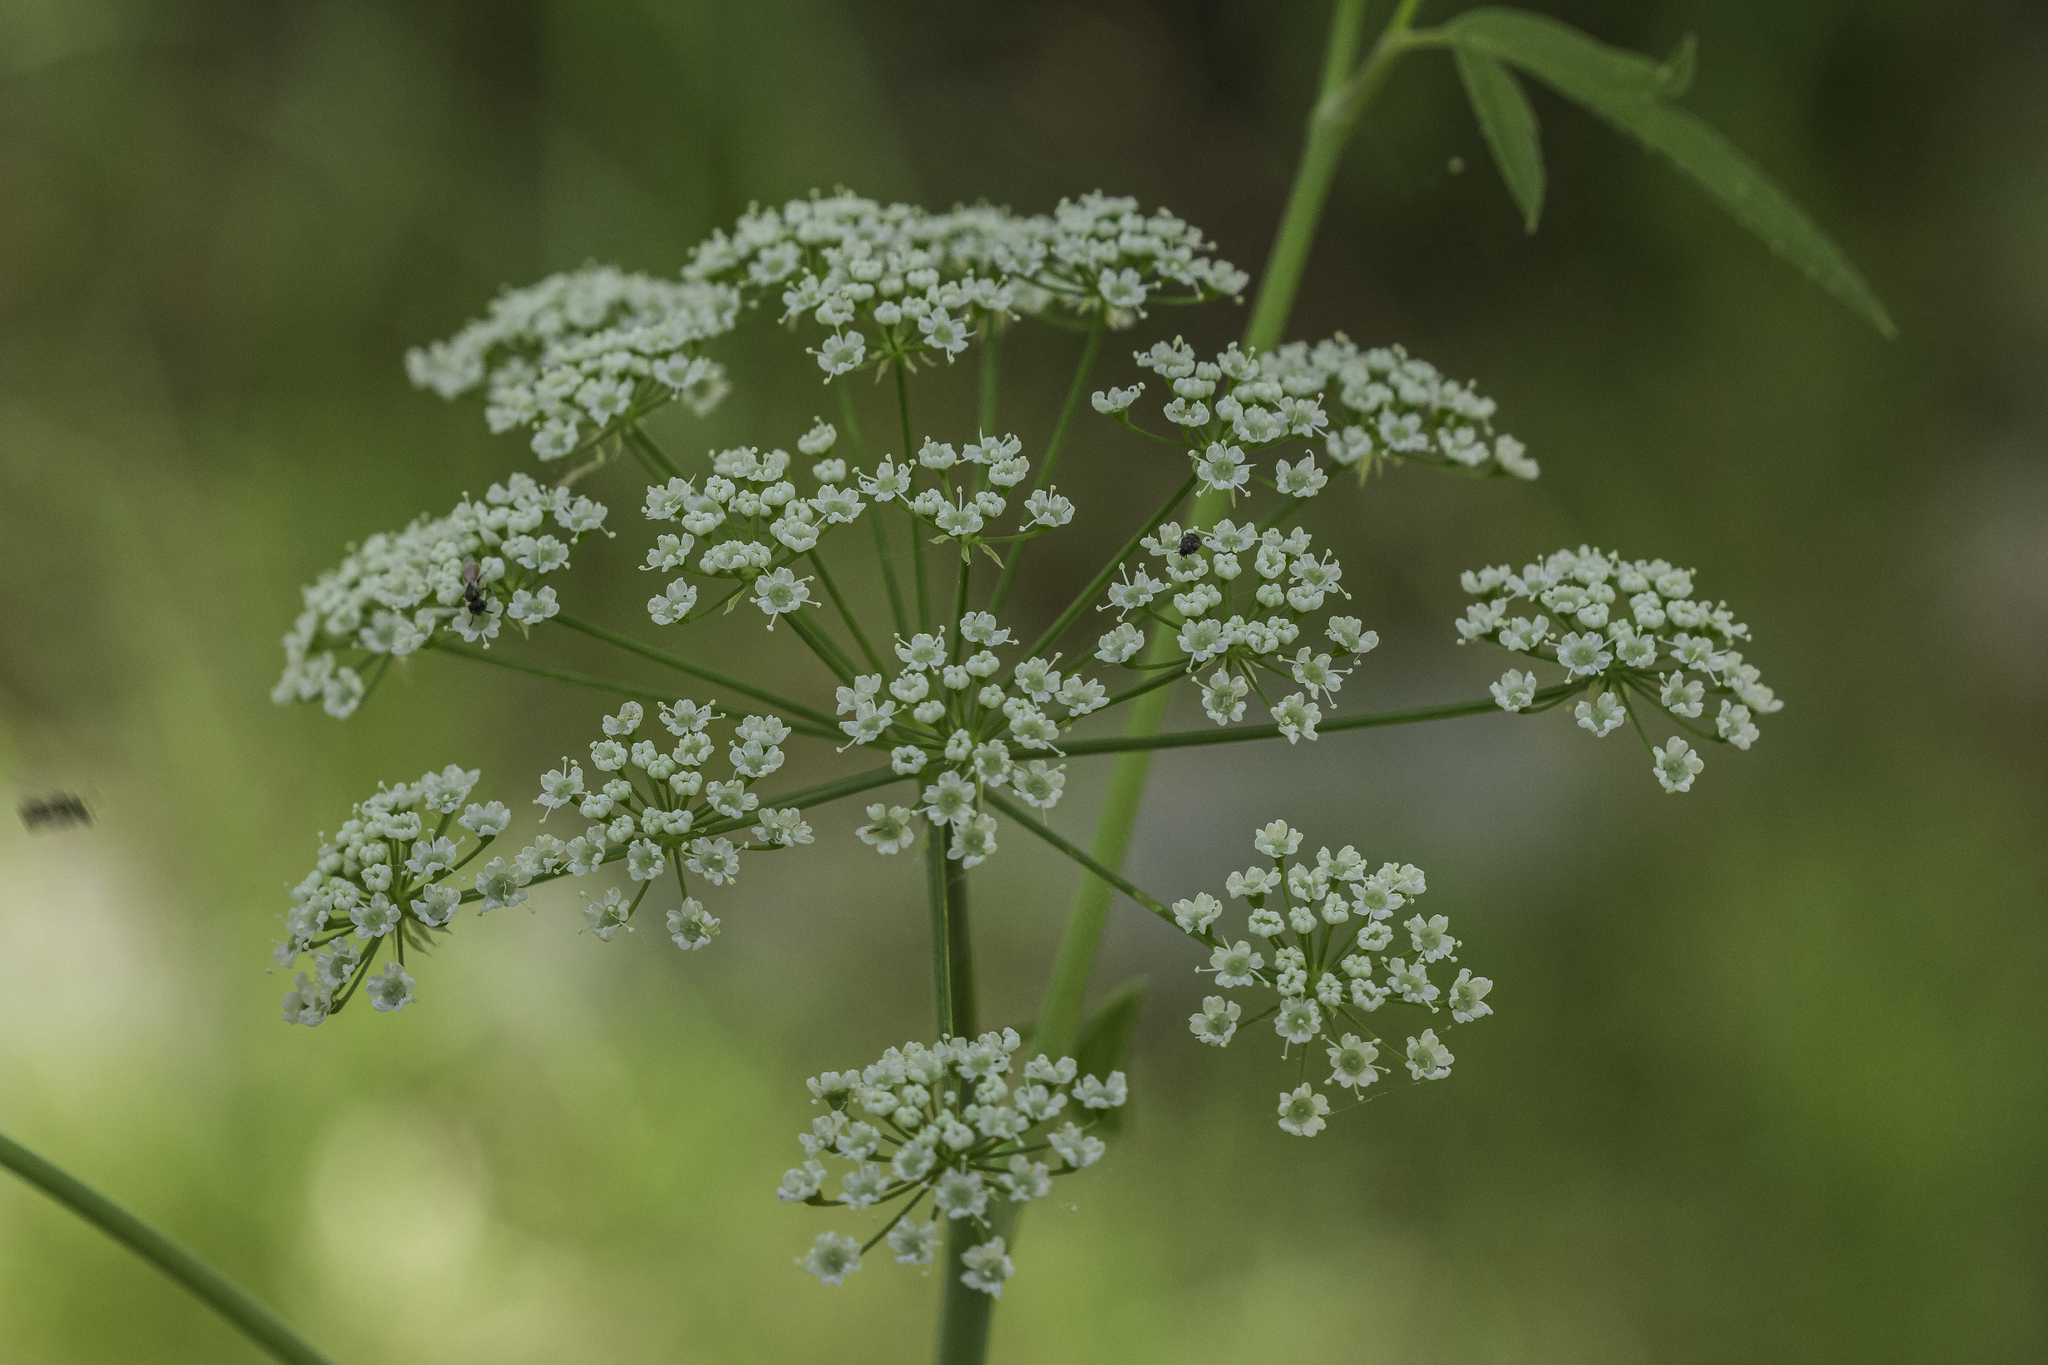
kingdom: Plantae
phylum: Tracheophyta
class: Magnoliopsida
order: Apiales
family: Apiaceae
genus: Cicuta
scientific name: Cicuta maculata
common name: Spotted cowbane
